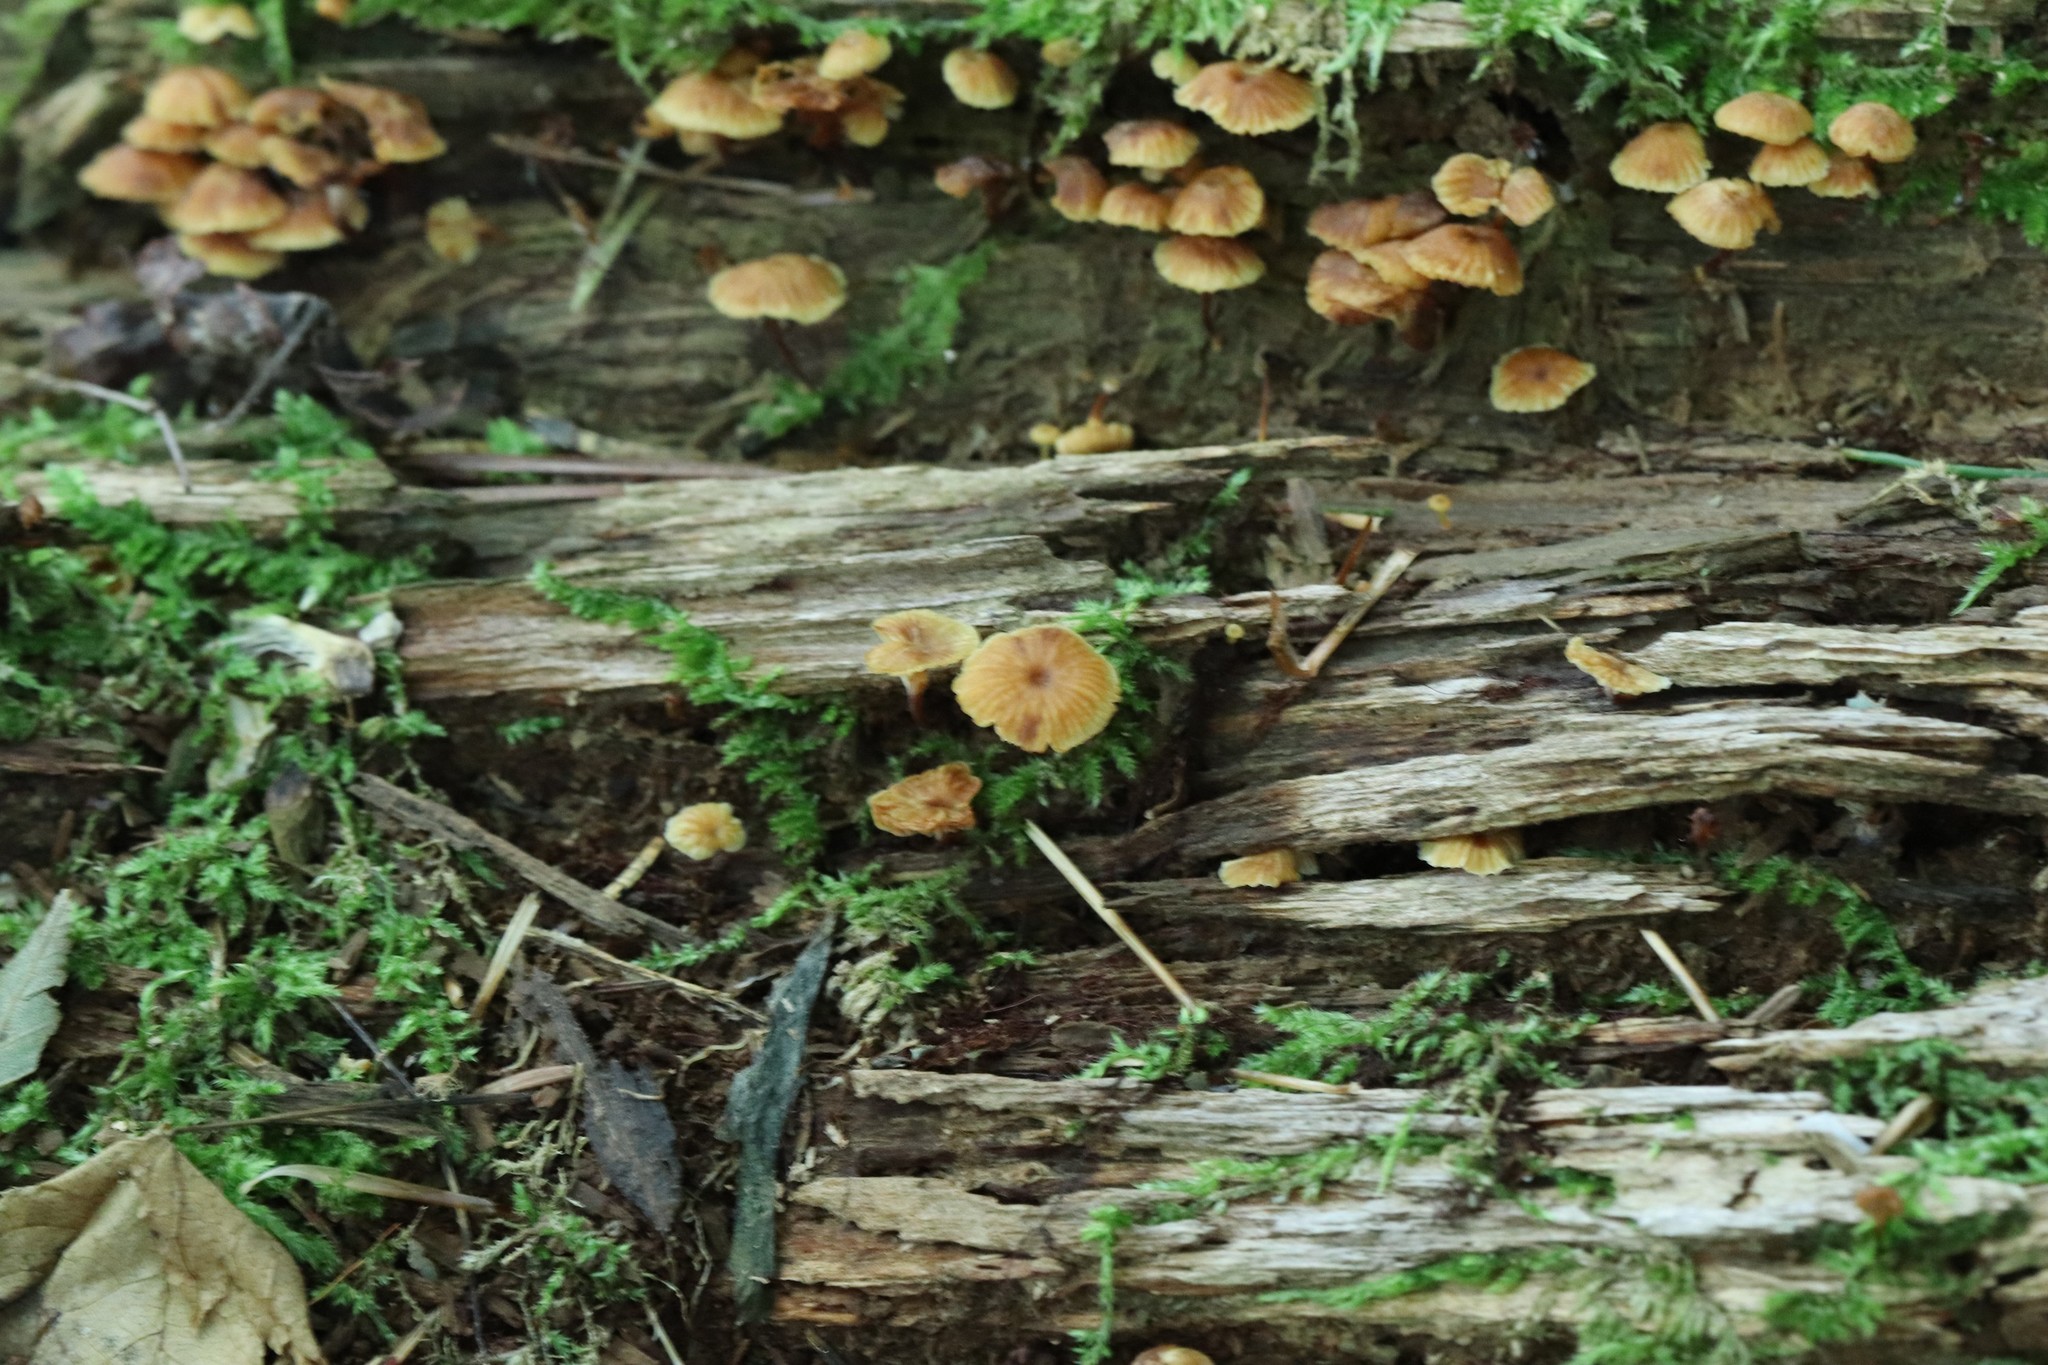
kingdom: Fungi
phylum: Basidiomycota
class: Agaricomycetes
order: Agaricales
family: Mycenaceae
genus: Xeromphalina
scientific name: Xeromphalina campanella
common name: Pinewood gingertail
